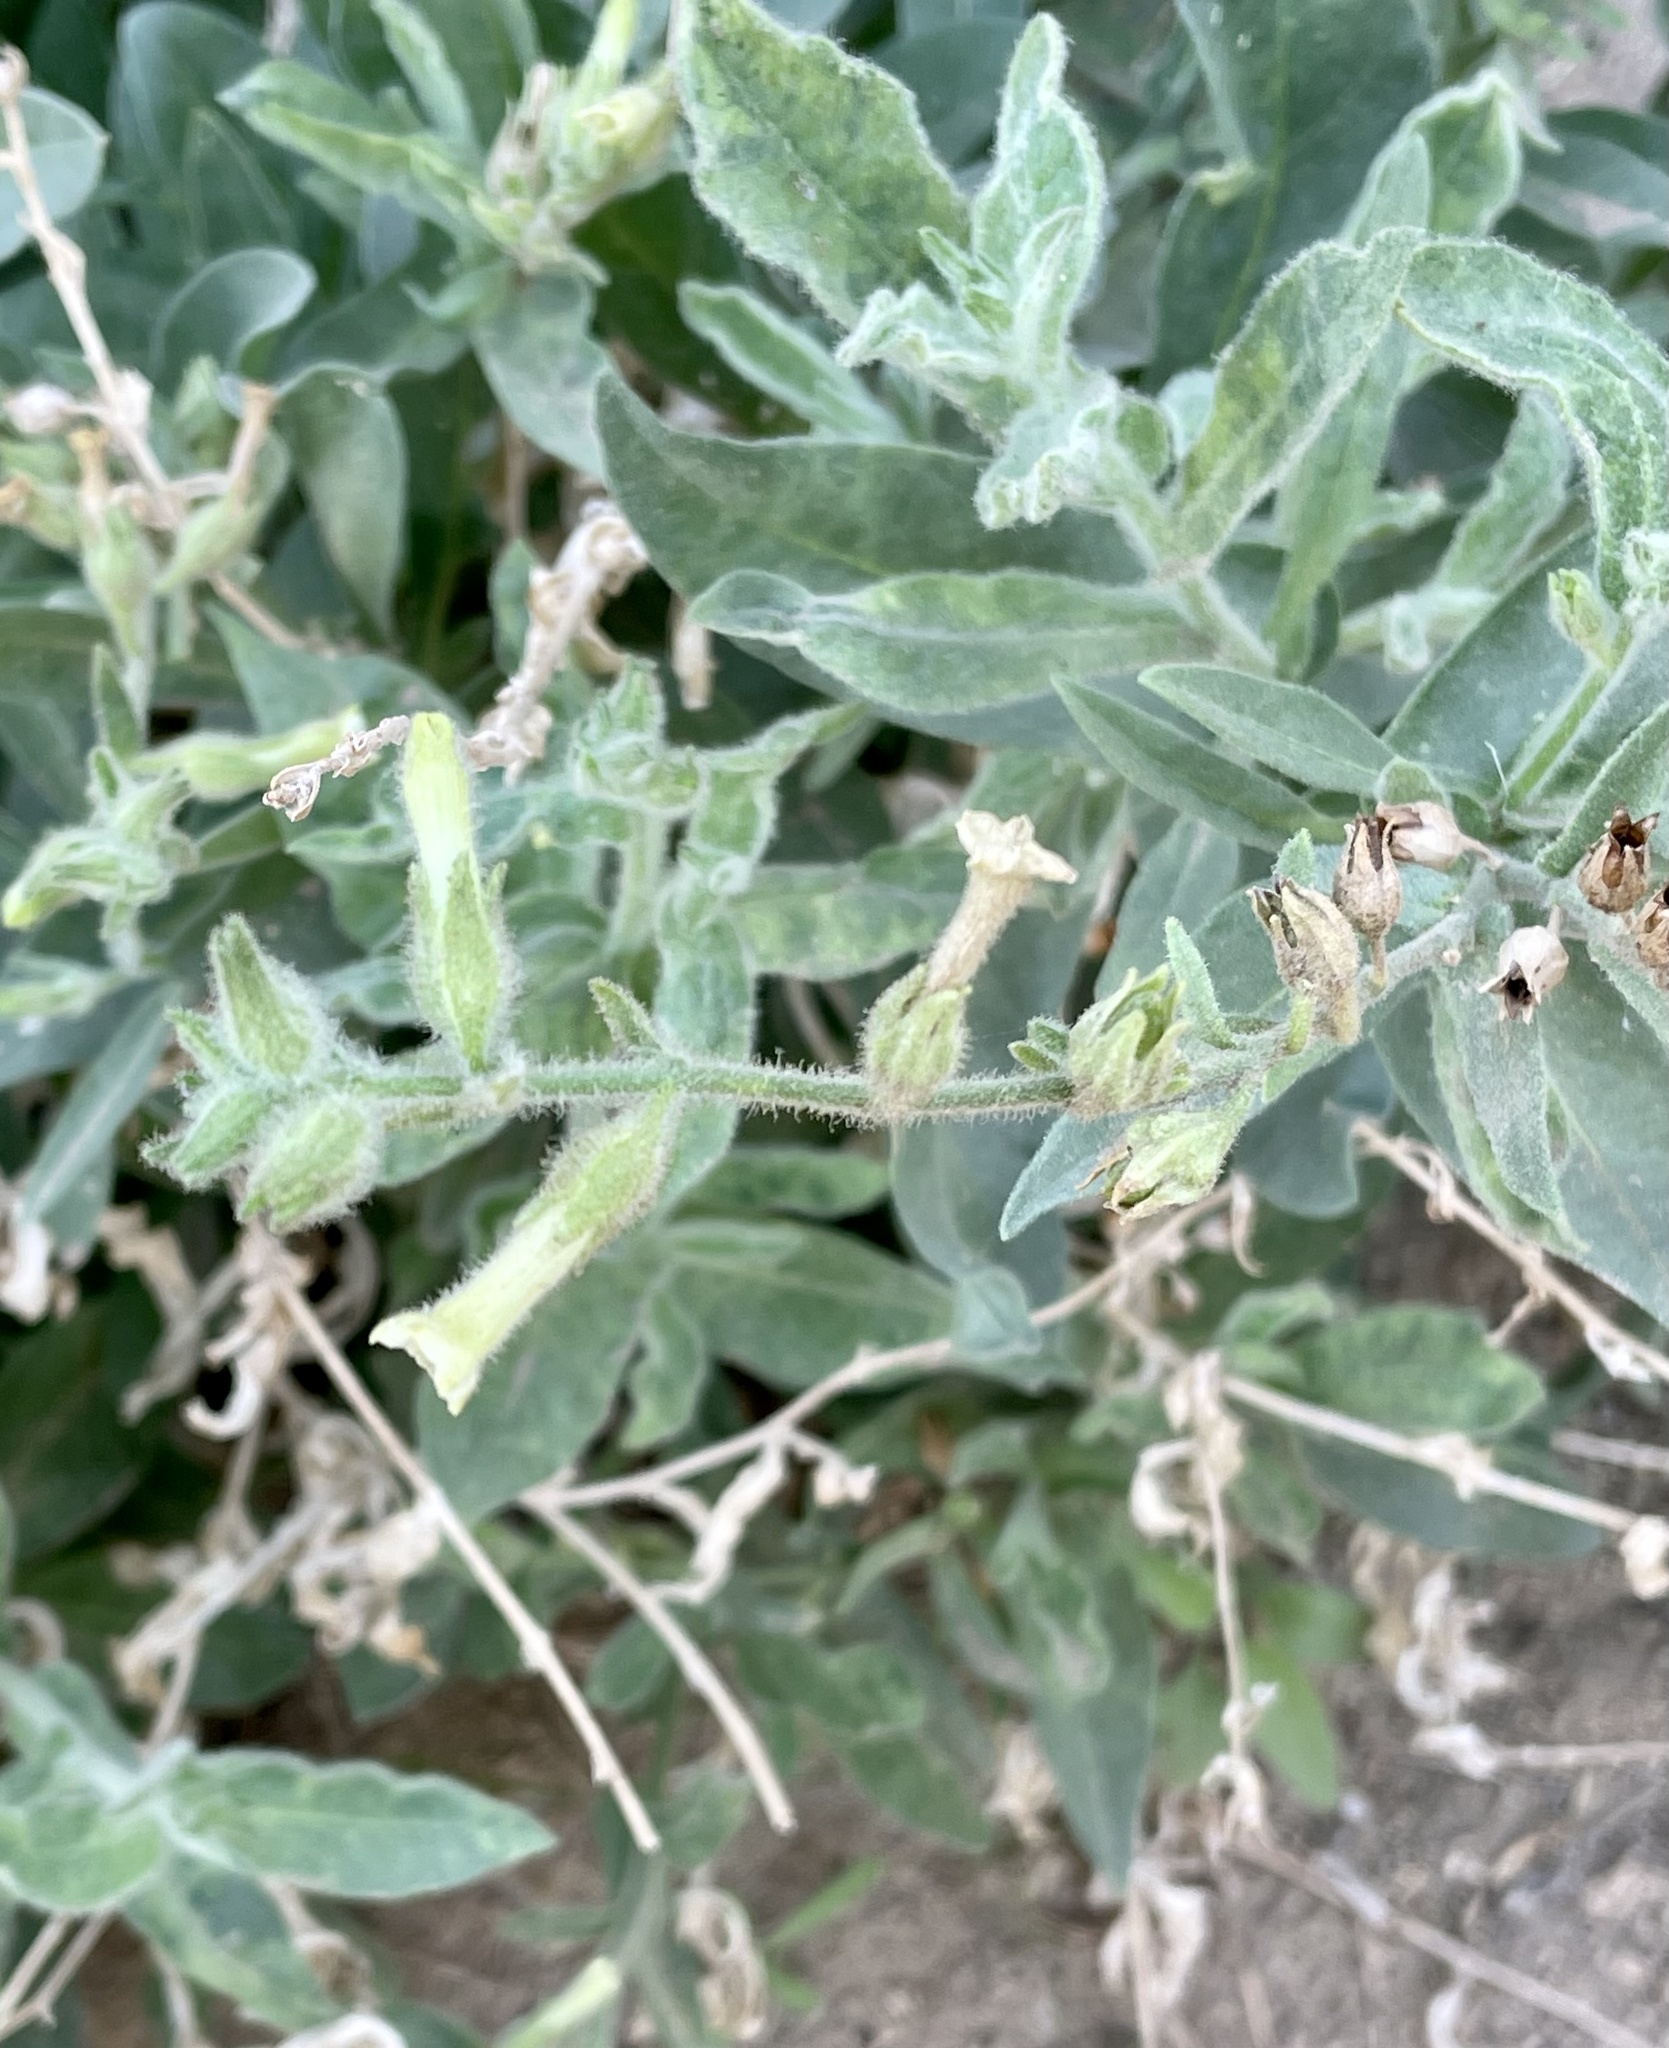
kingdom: Plantae
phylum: Tracheophyta
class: Magnoliopsida
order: Solanales
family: Solanaceae
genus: Nicotiana
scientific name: Nicotiana obtusifolia
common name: Desert tobacco
